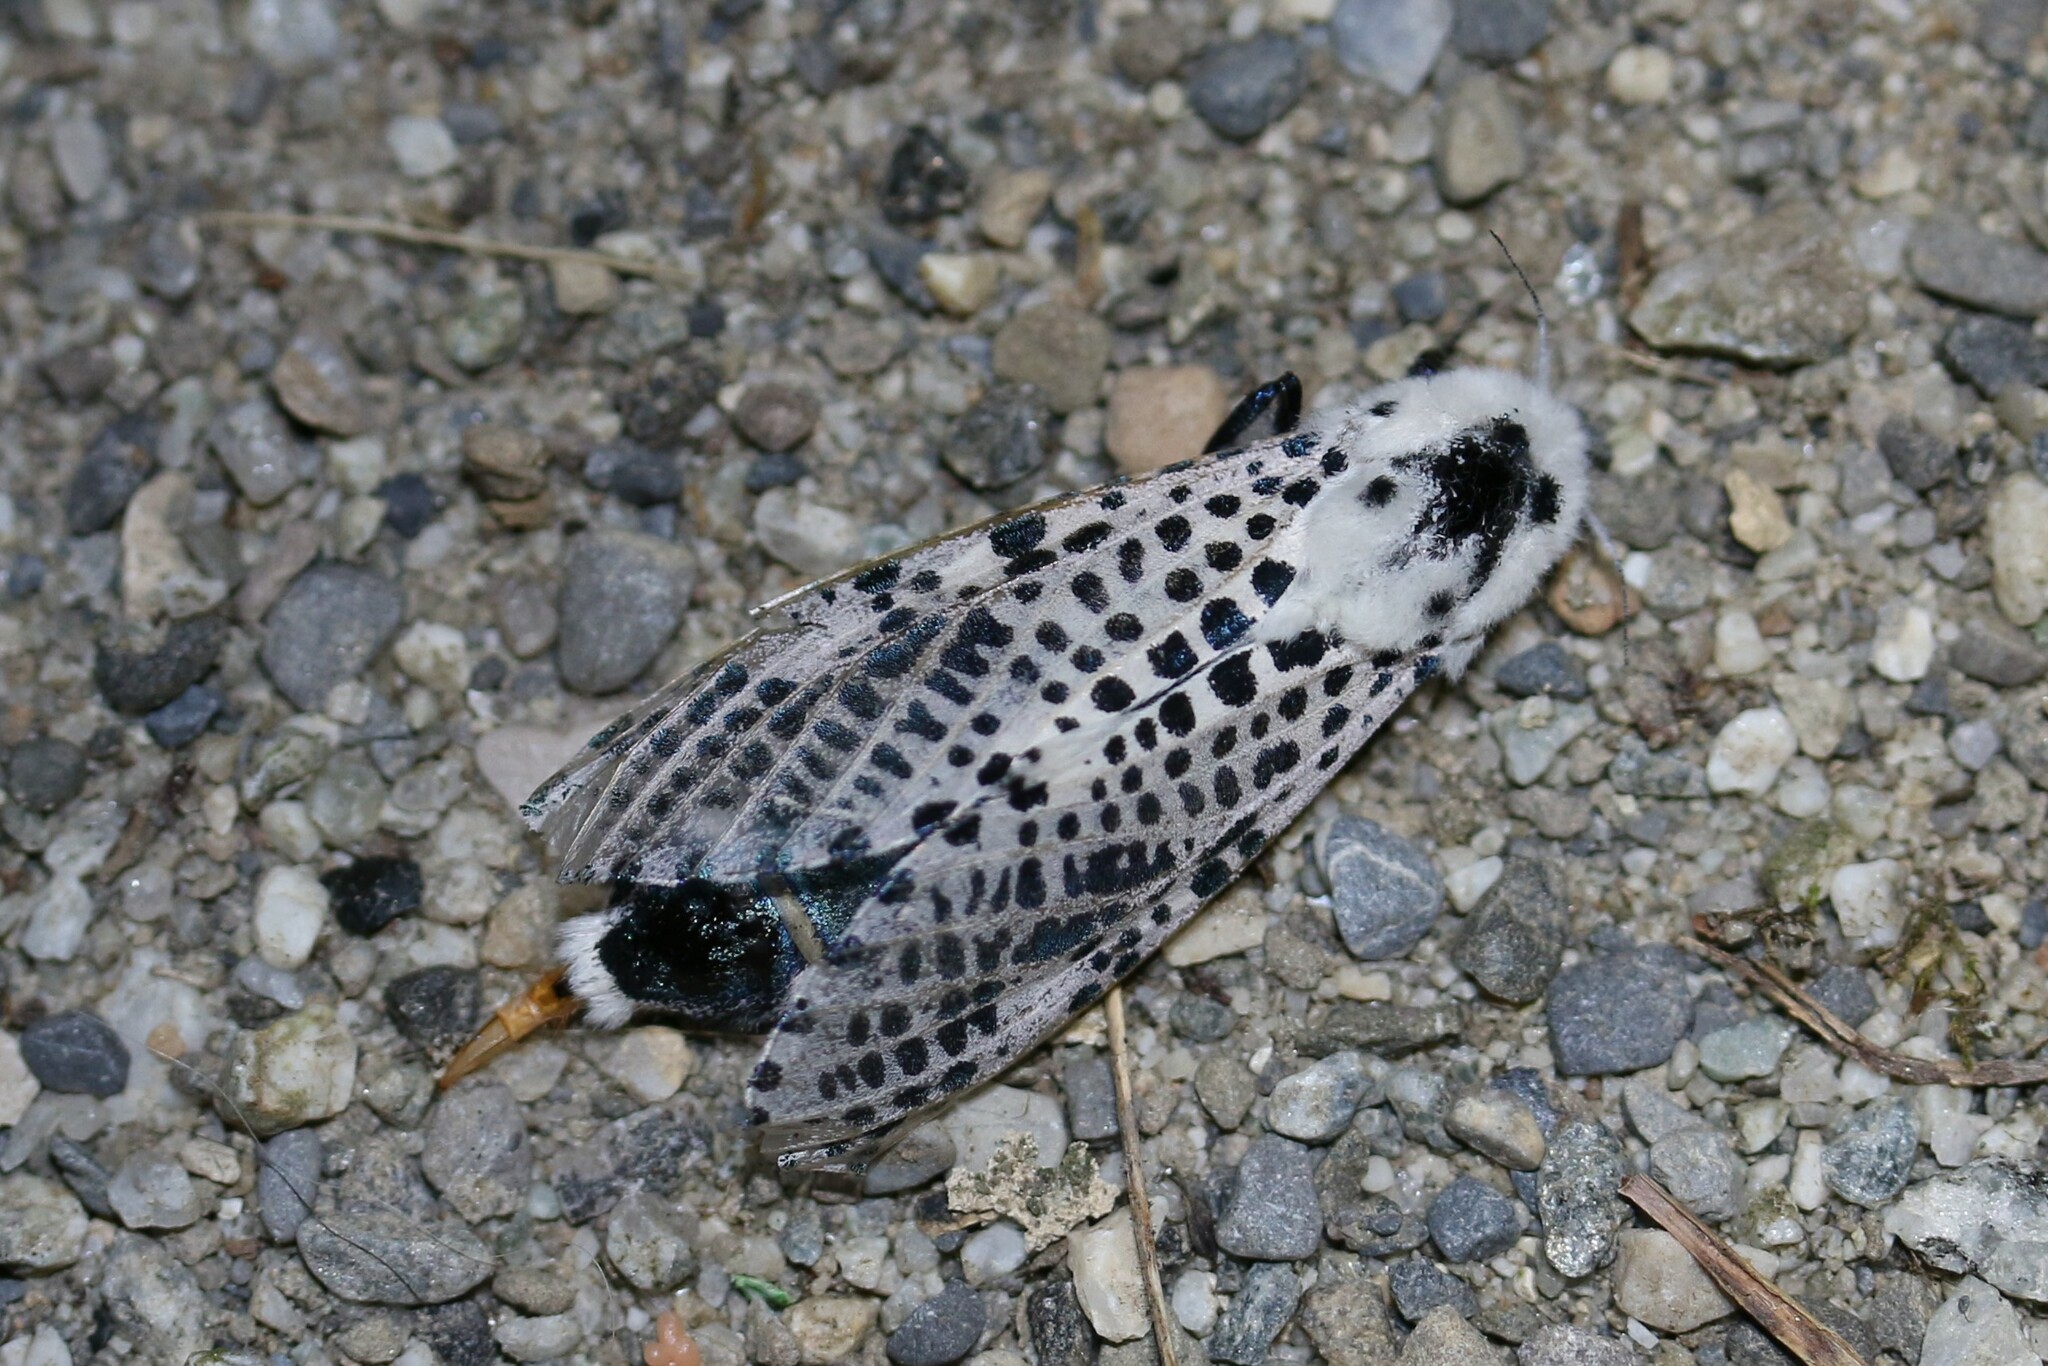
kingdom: Animalia
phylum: Arthropoda
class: Insecta
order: Lepidoptera
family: Cossidae
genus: Zeuzera
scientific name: Zeuzera pyrina
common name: Leopard moth
